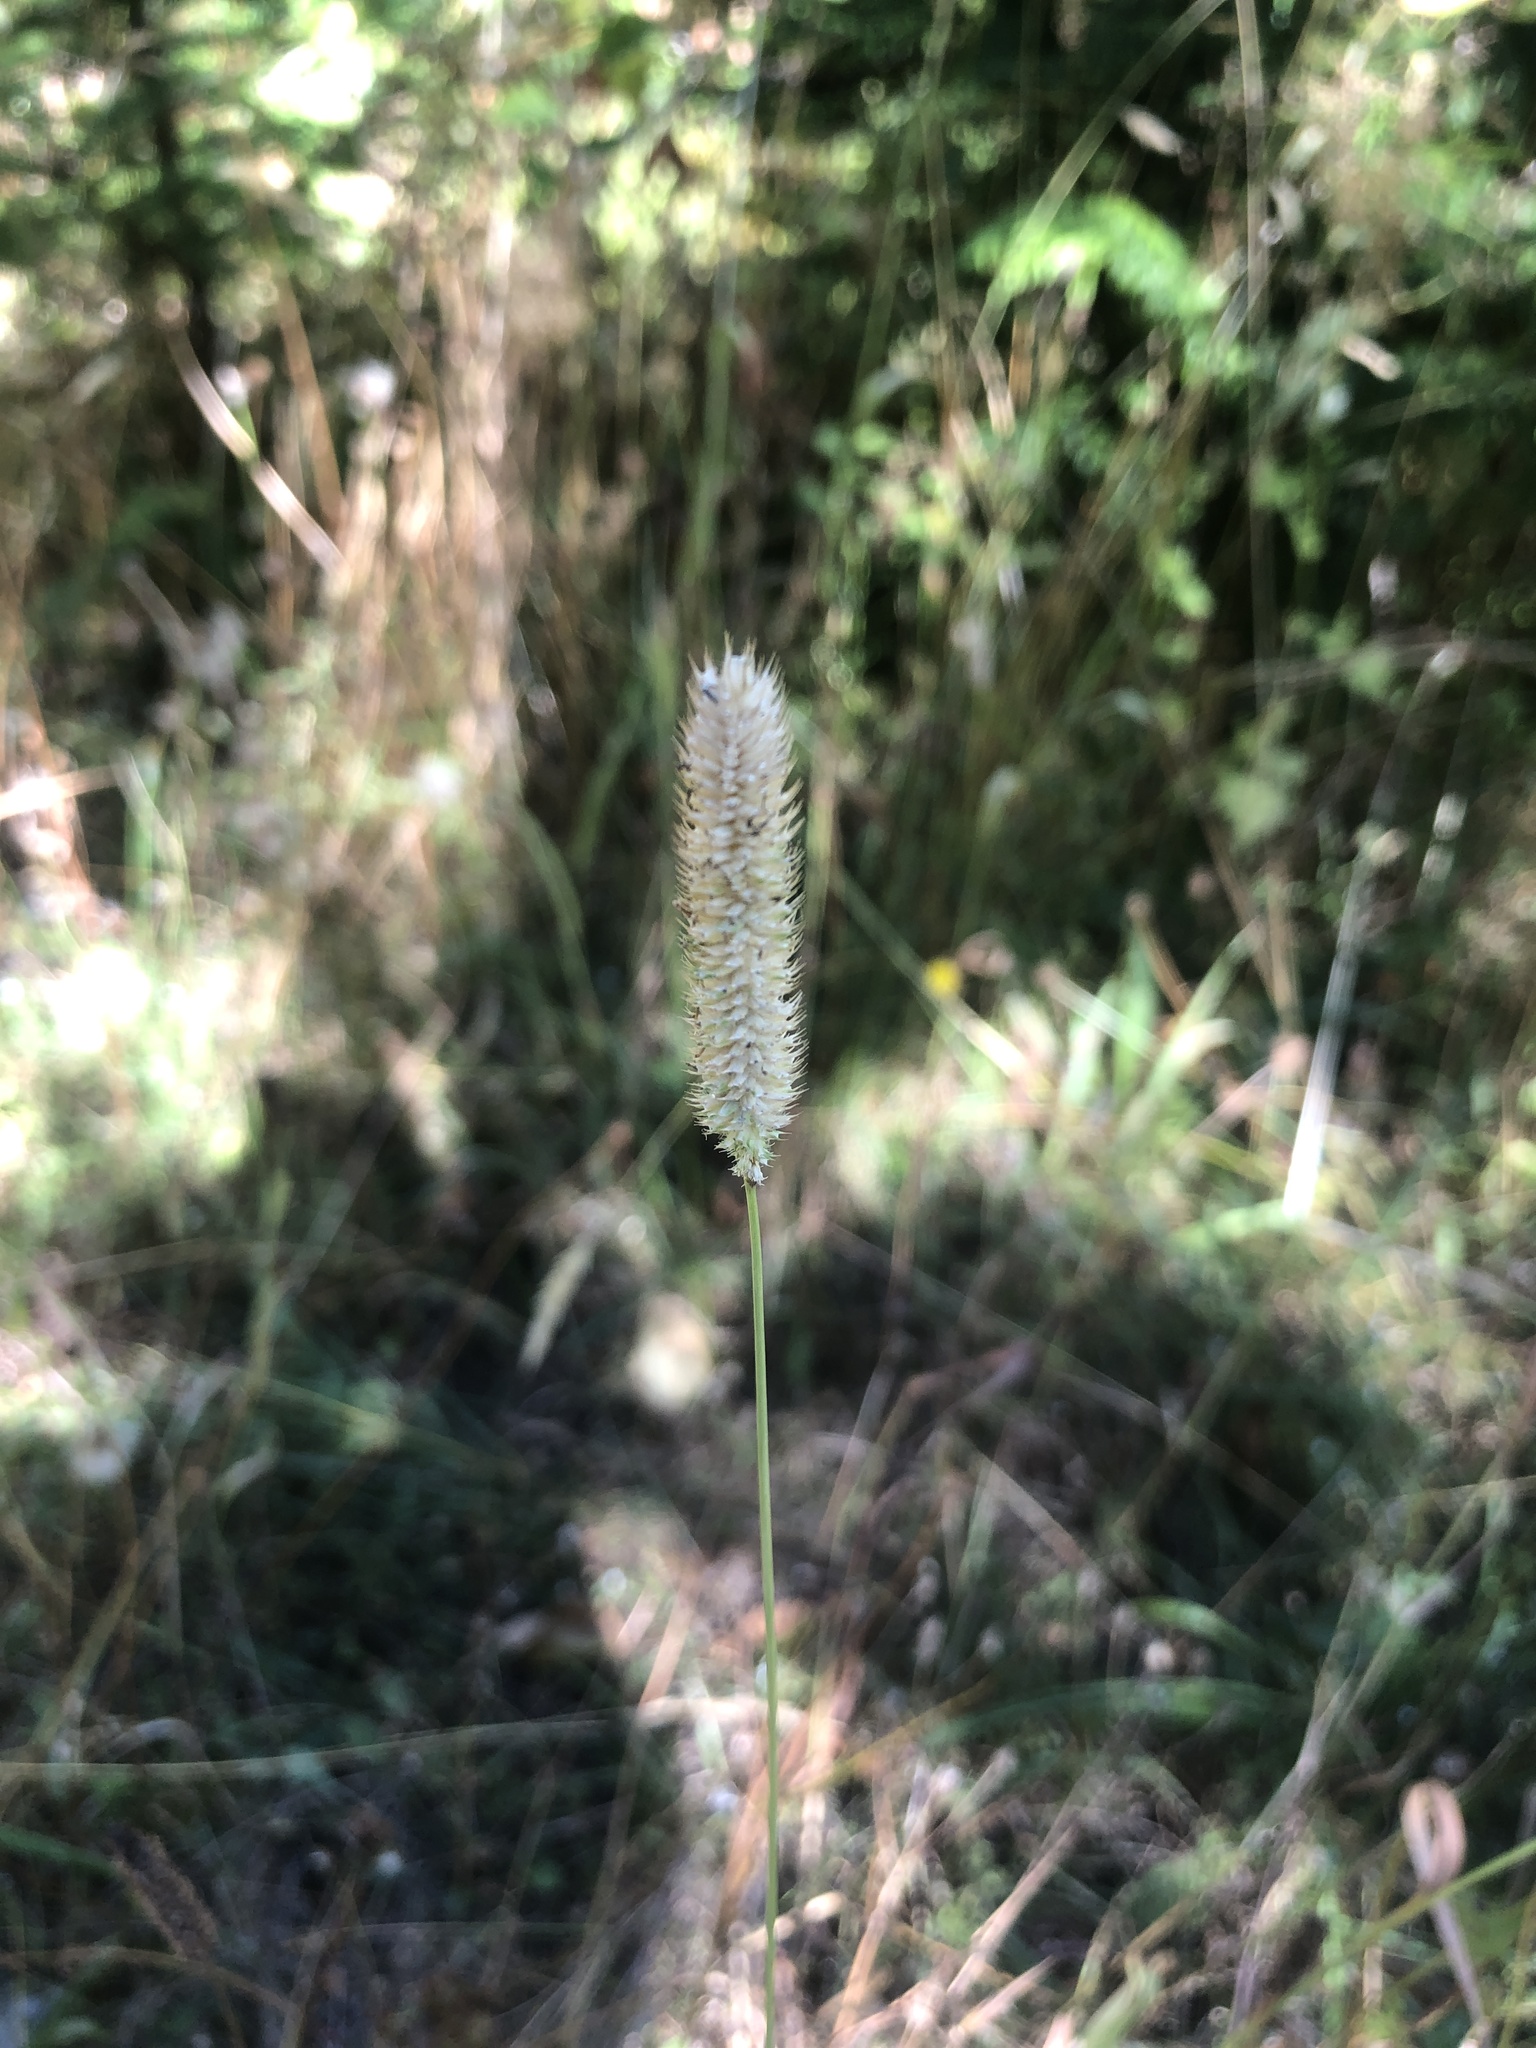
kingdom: Plantae
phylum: Tracheophyta
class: Liliopsida
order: Poales
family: Poaceae
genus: Phleum
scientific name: Phleum pratense
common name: Timothy grass
